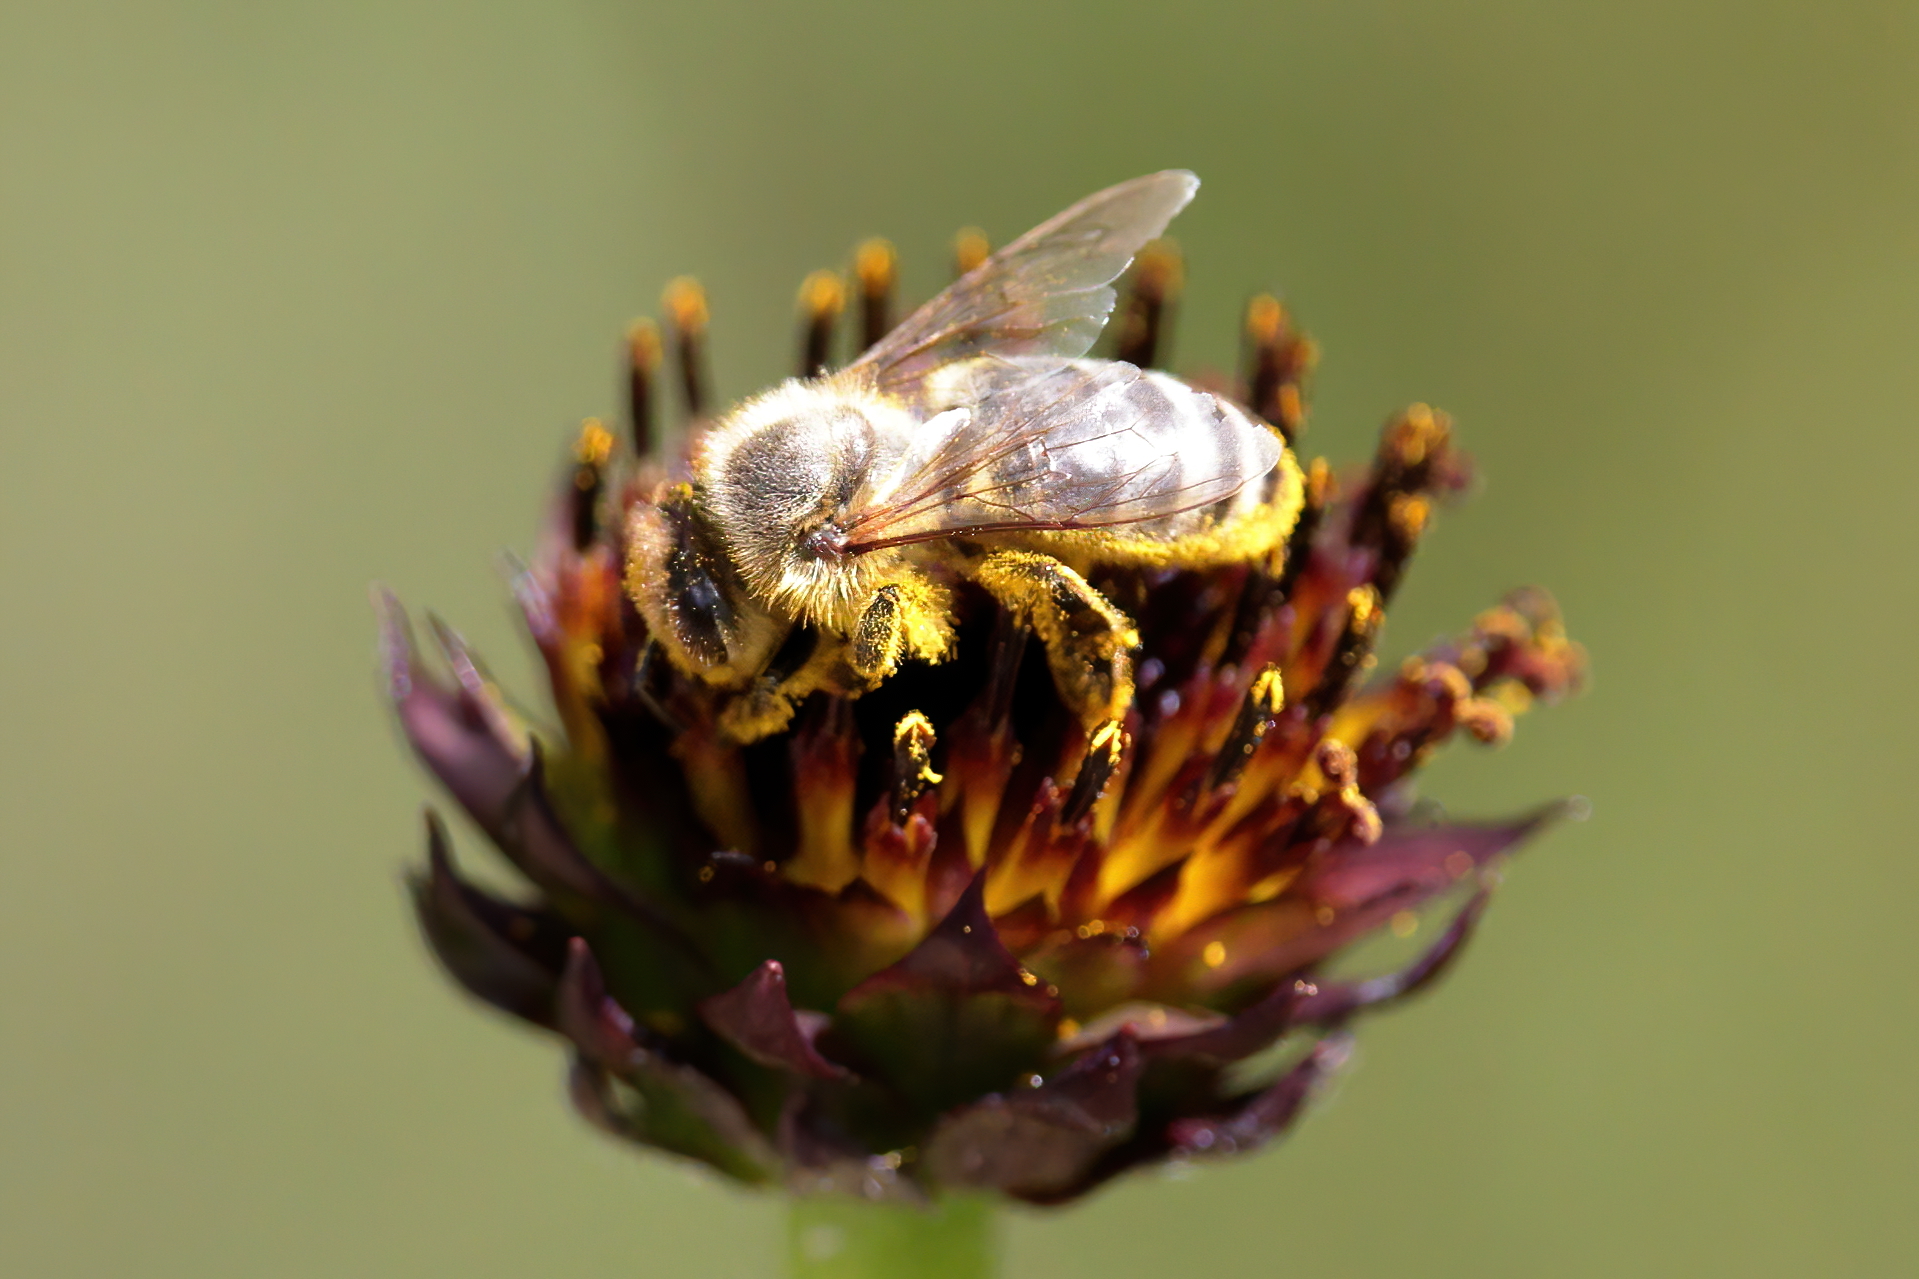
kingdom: Animalia
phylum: Arthropoda
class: Insecta
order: Hymenoptera
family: Apidae
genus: Apis
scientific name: Apis mellifera
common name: Honey bee
